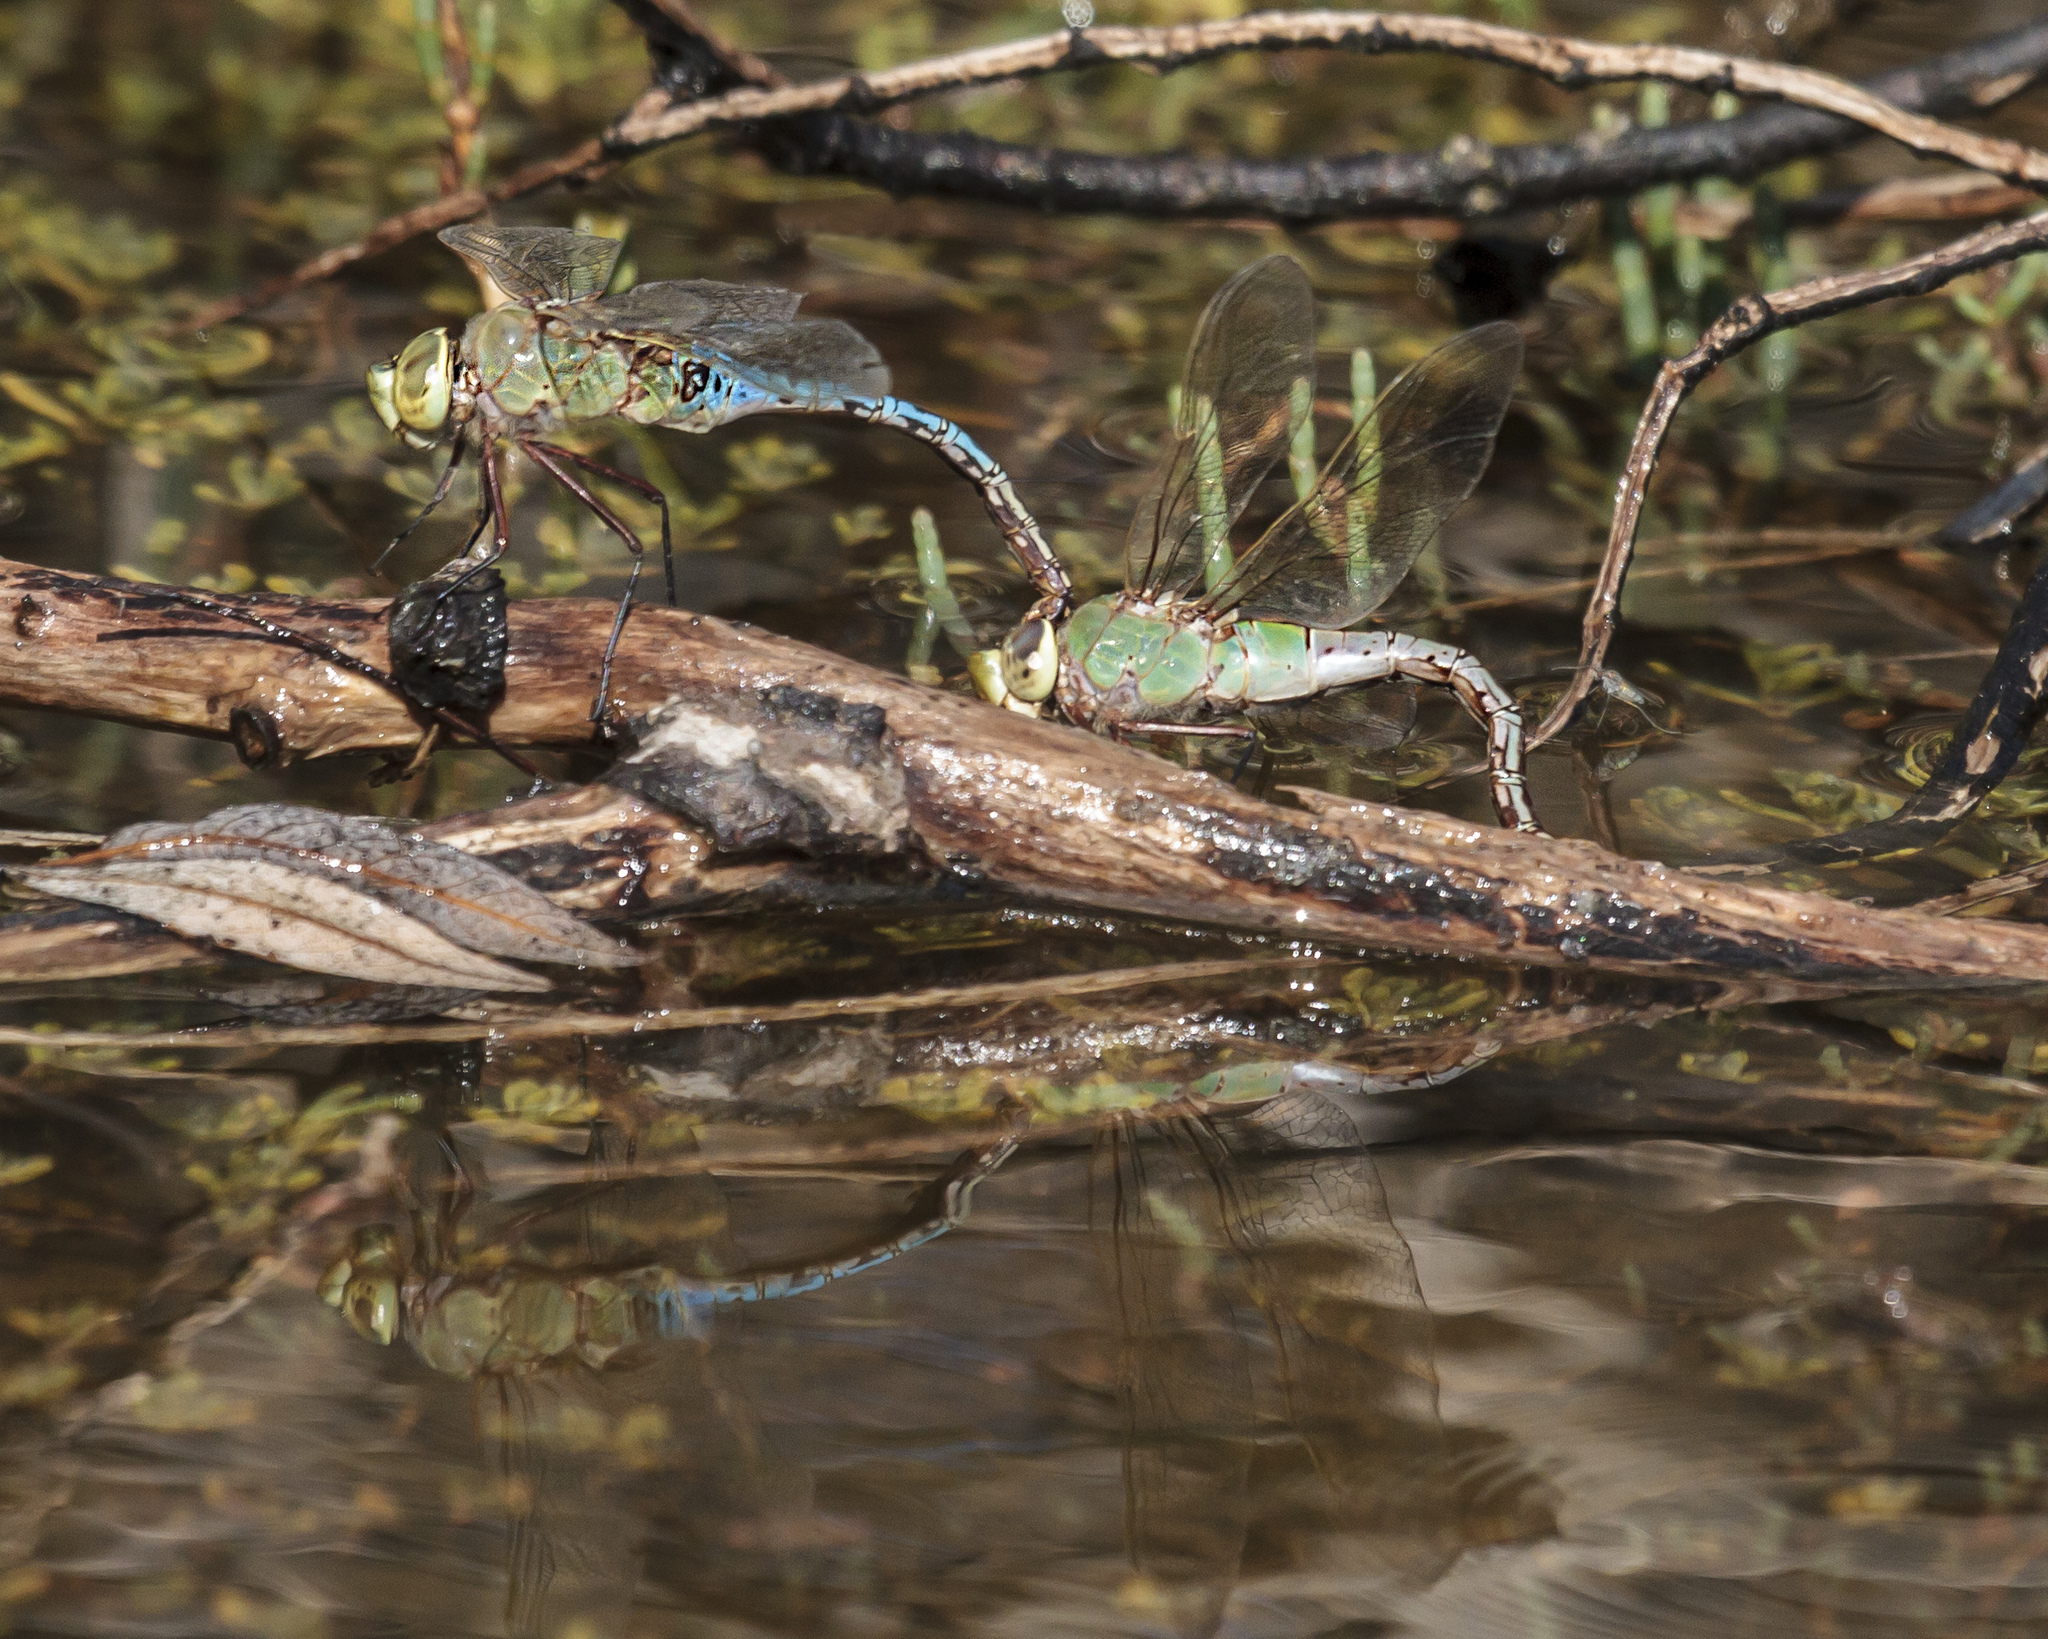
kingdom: Animalia
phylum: Arthropoda
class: Insecta
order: Odonata
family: Aeshnidae
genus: Anax
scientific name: Anax junius
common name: Common green darner
